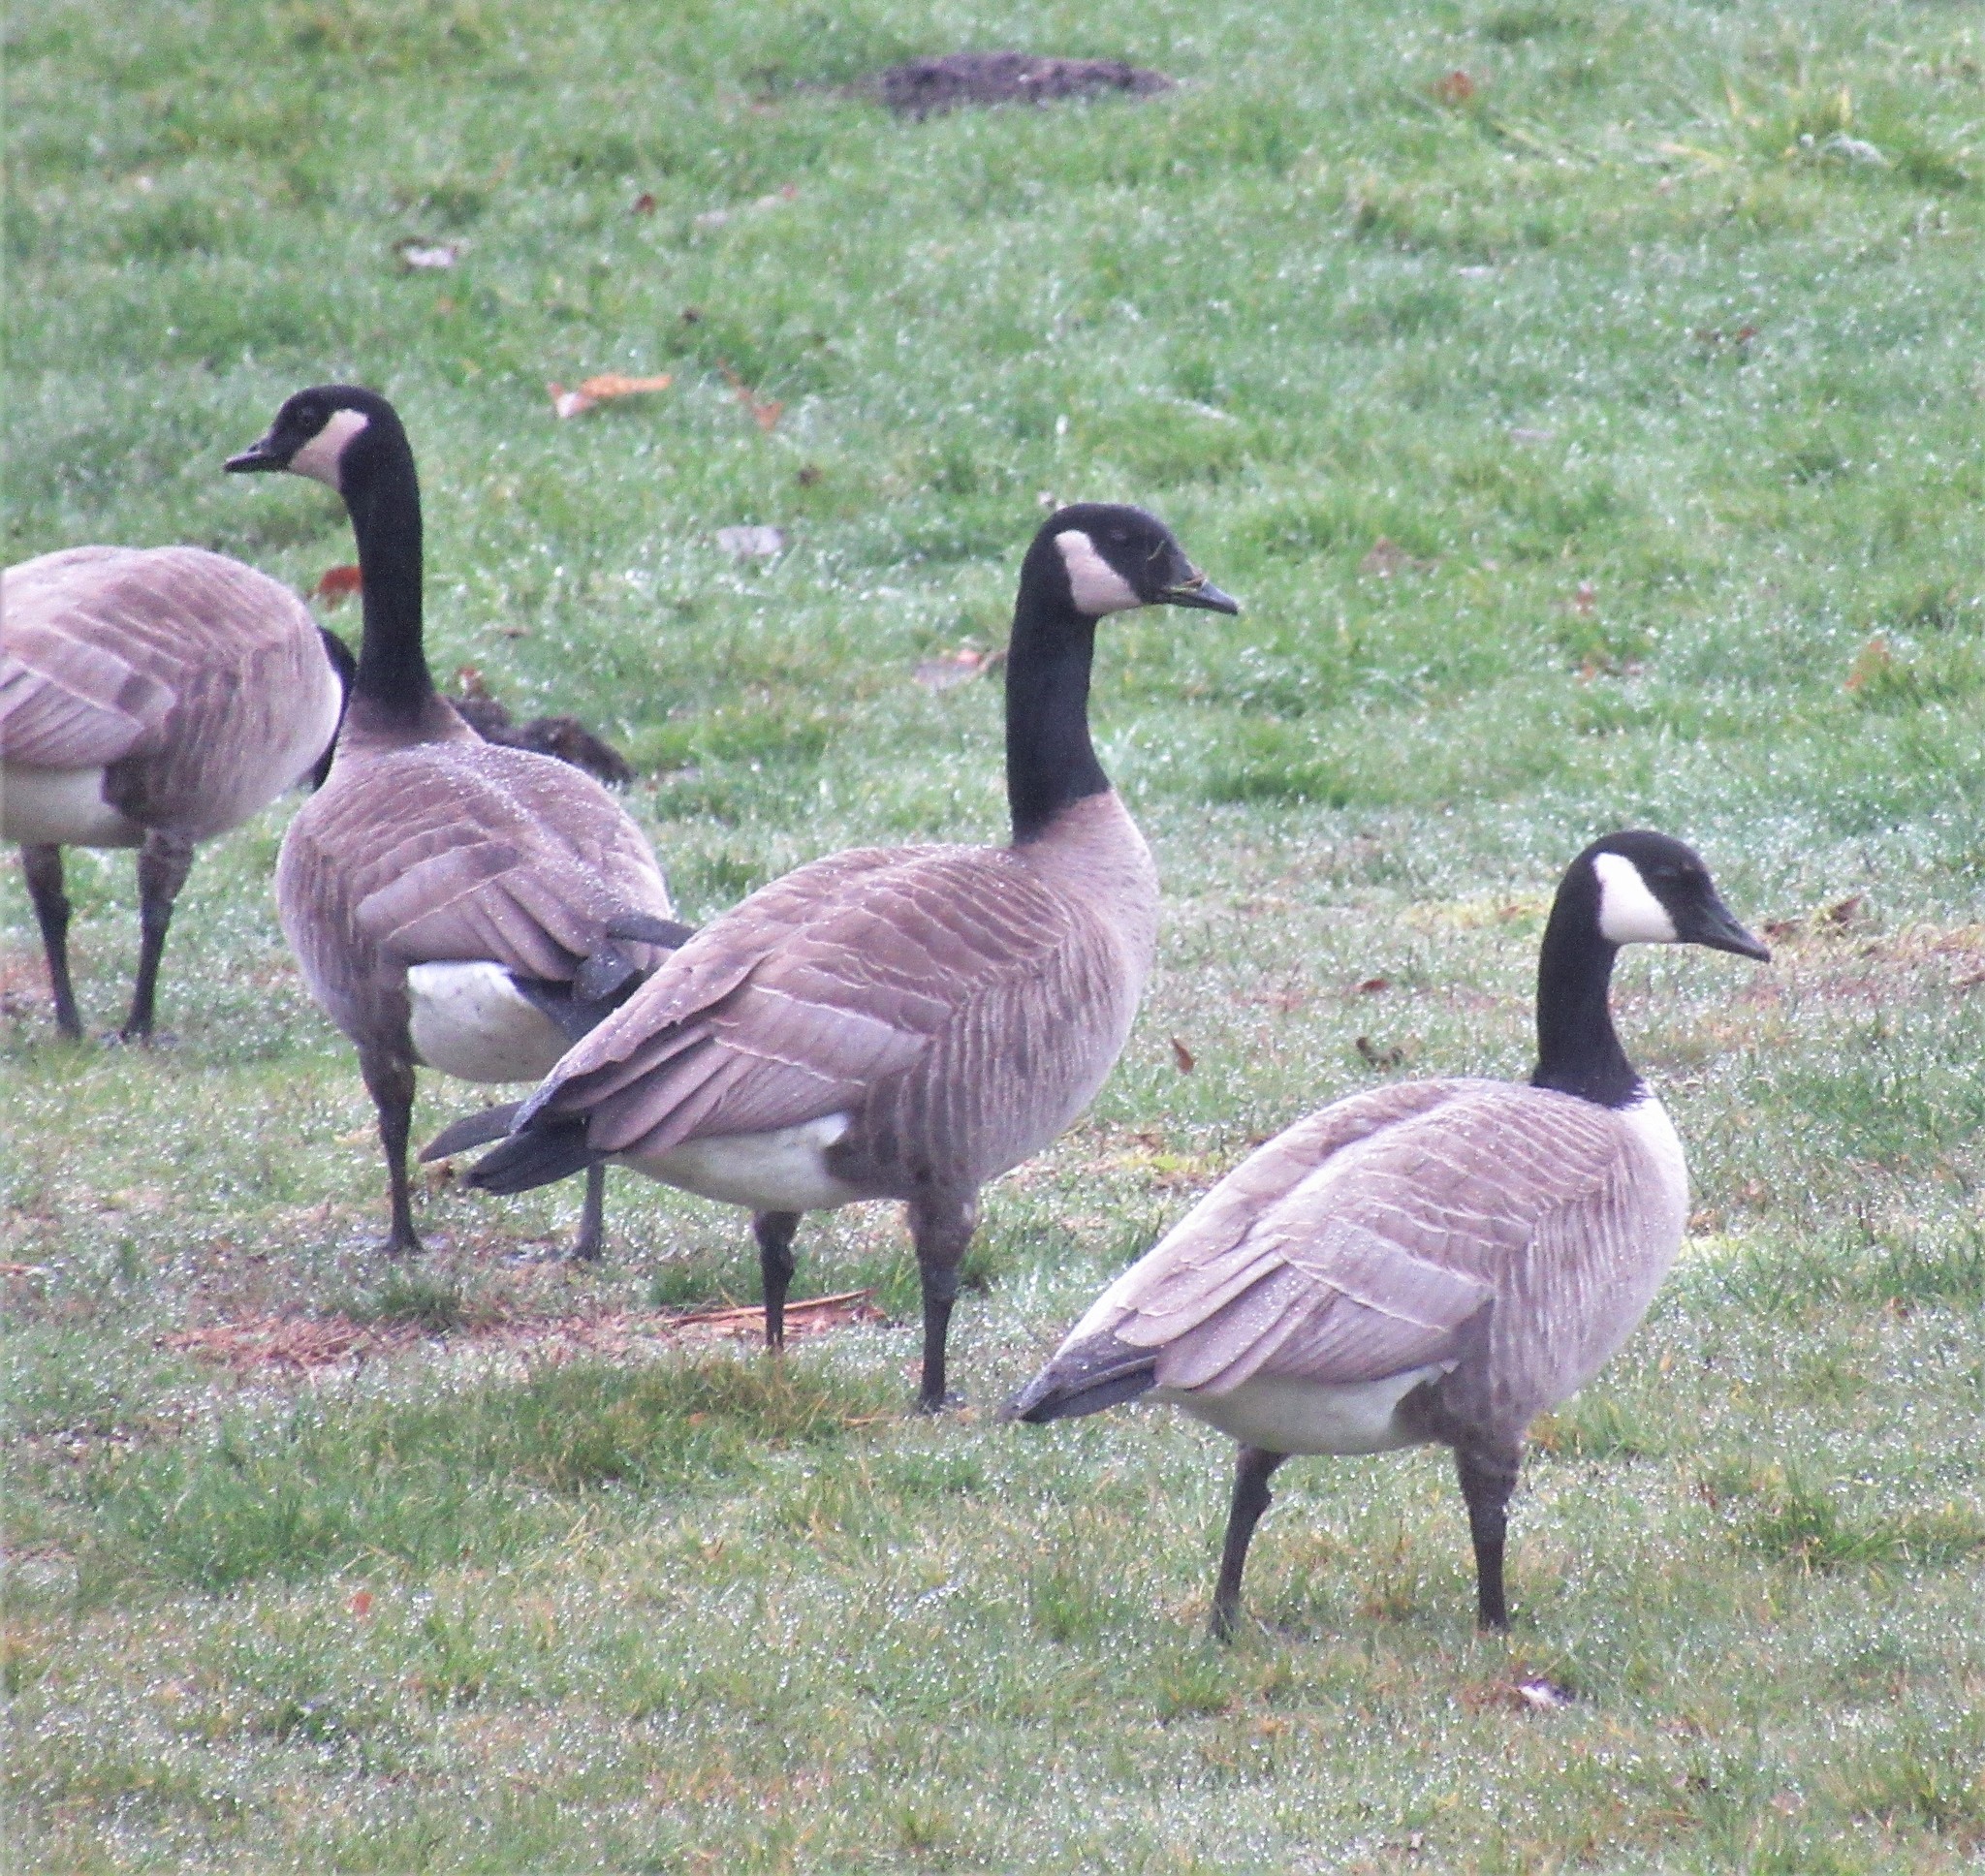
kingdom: Animalia
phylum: Chordata
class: Aves
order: Anseriformes
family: Anatidae
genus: Branta
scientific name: Branta hutchinsii
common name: Cackling goose
